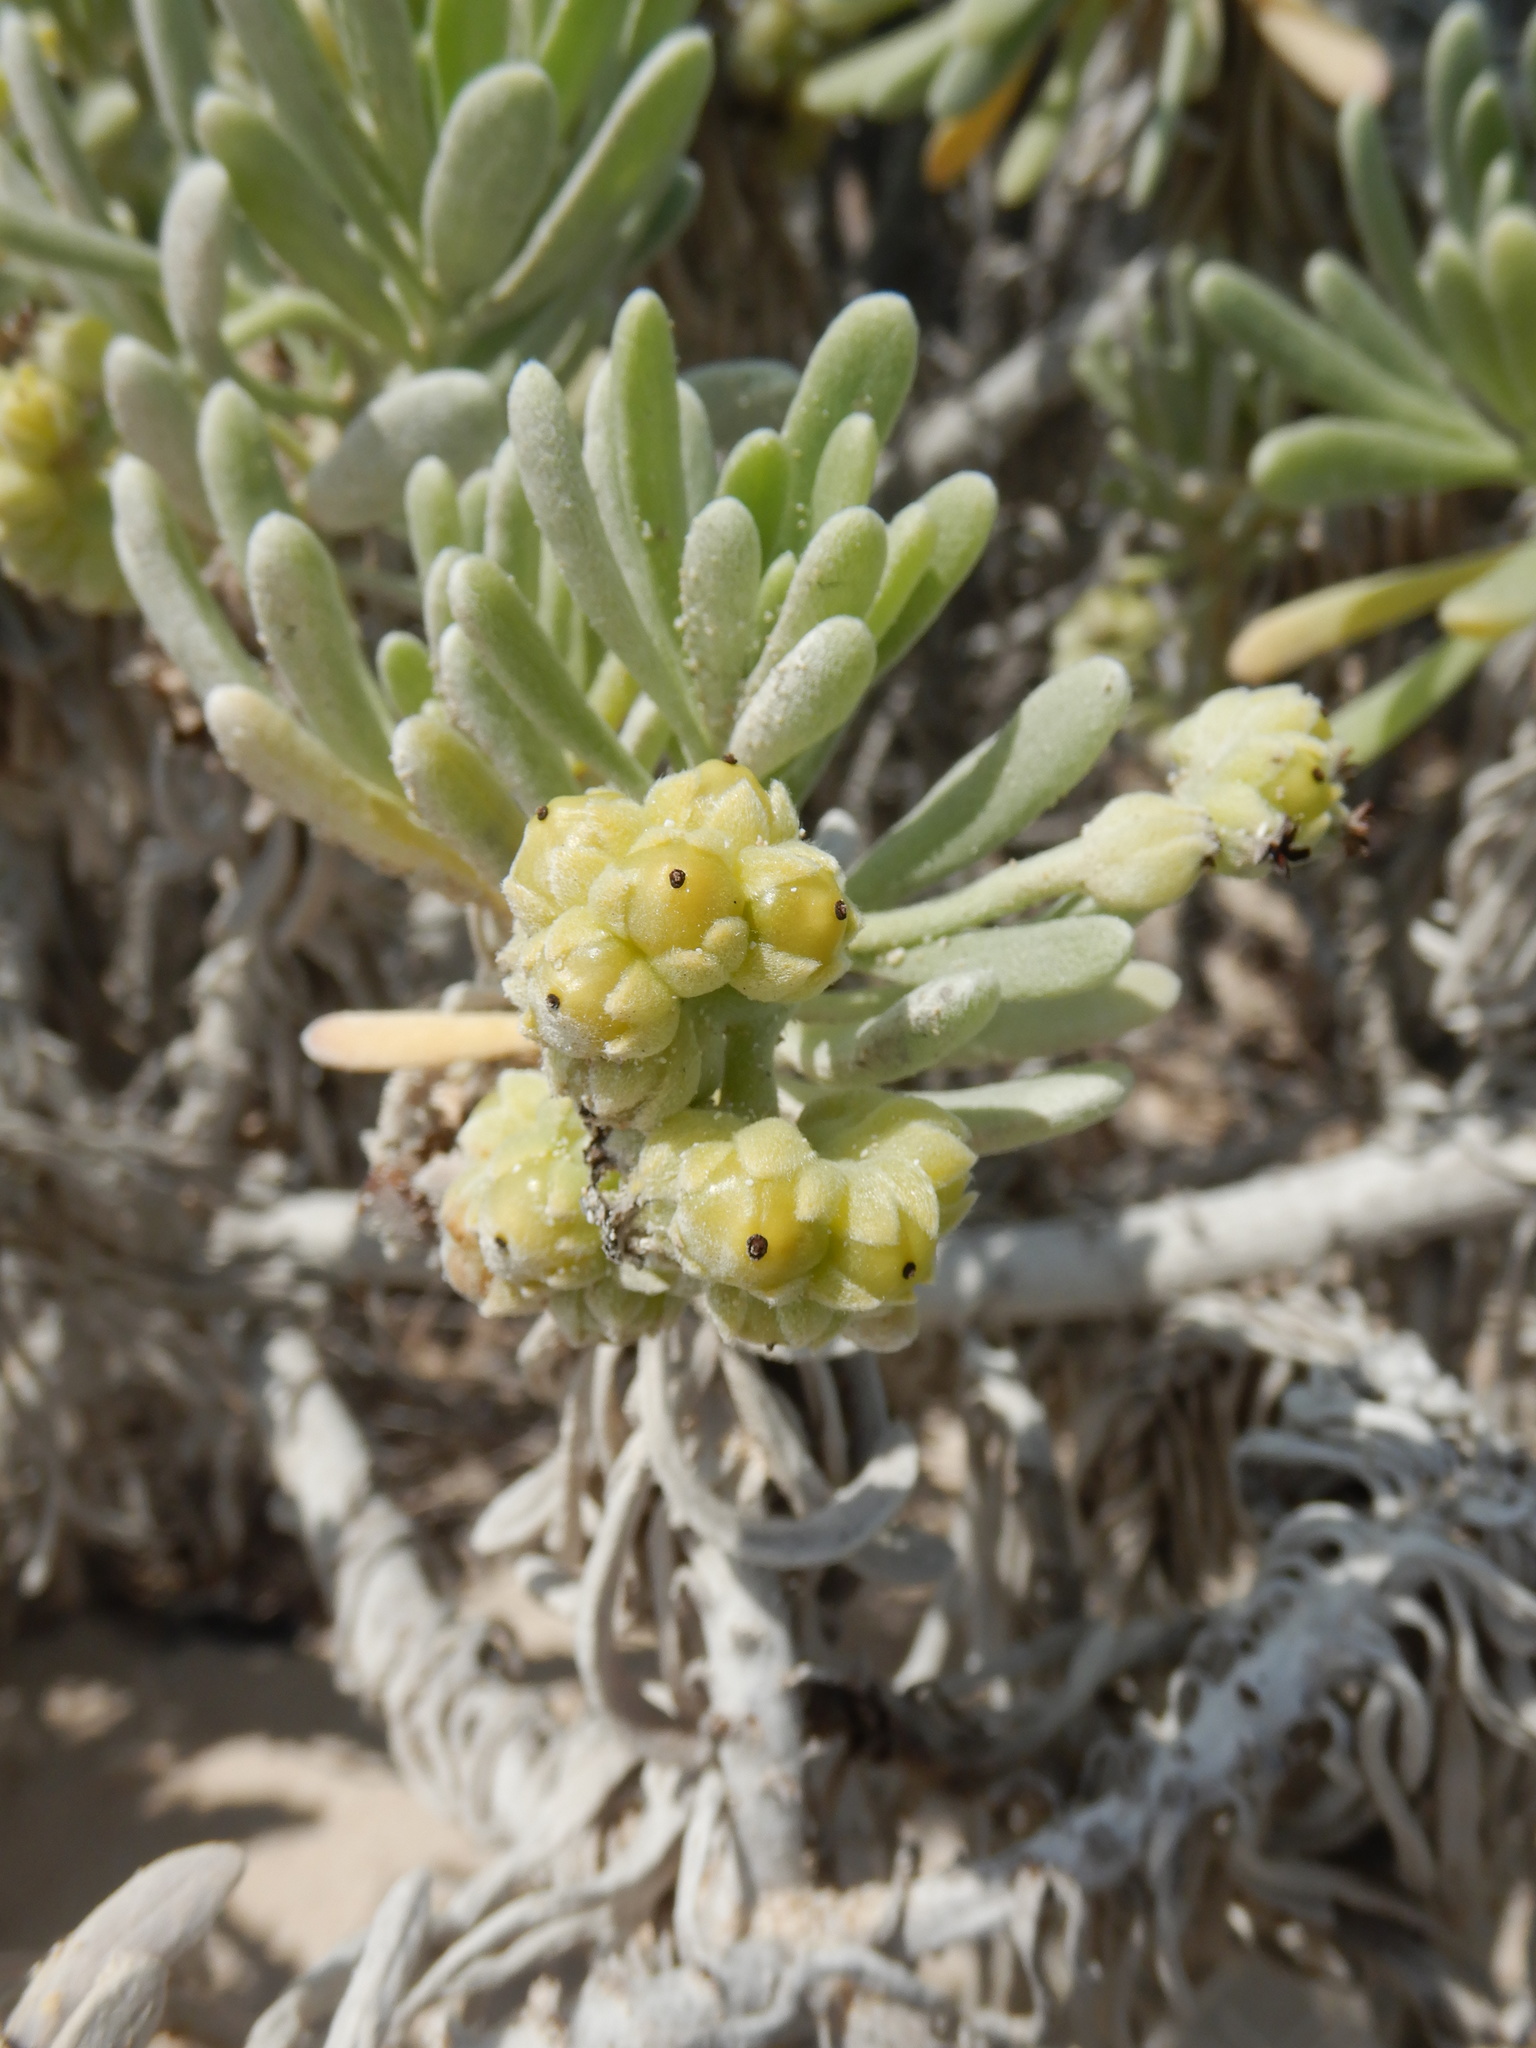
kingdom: Plantae
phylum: Tracheophyta
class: Magnoliopsida
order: Boraginales
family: Heliotropiaceae
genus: Tournefortia
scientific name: Tournefortia gnaphalodes
